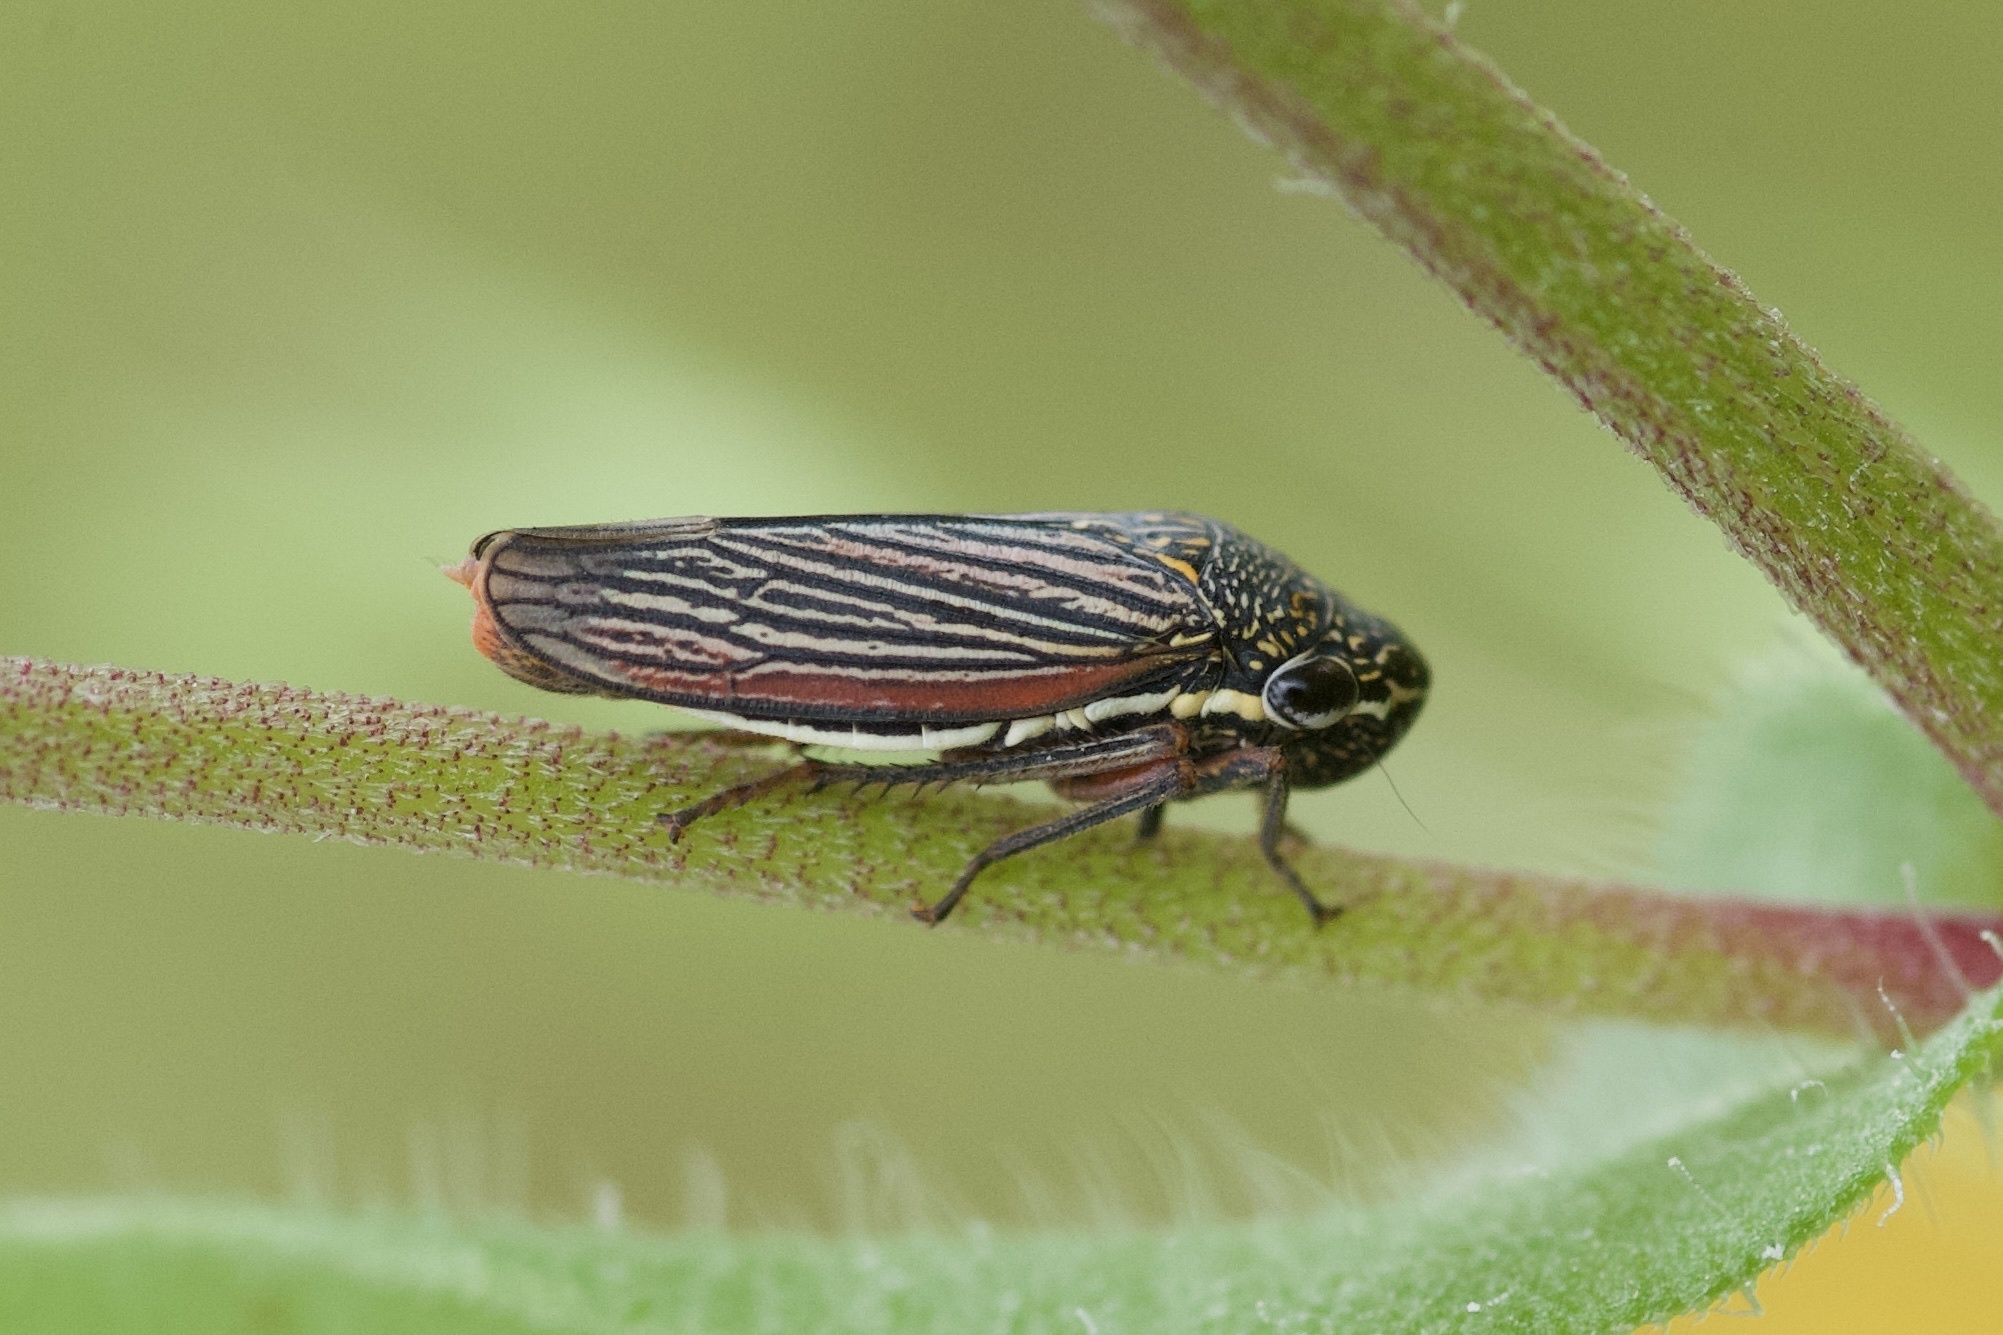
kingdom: Animalia
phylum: Arthropoda
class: Insecta
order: Hemiptera
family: Cicadellidae
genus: Cuerna
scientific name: Cuerna costalis
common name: Lateral-lined sharpshooter
